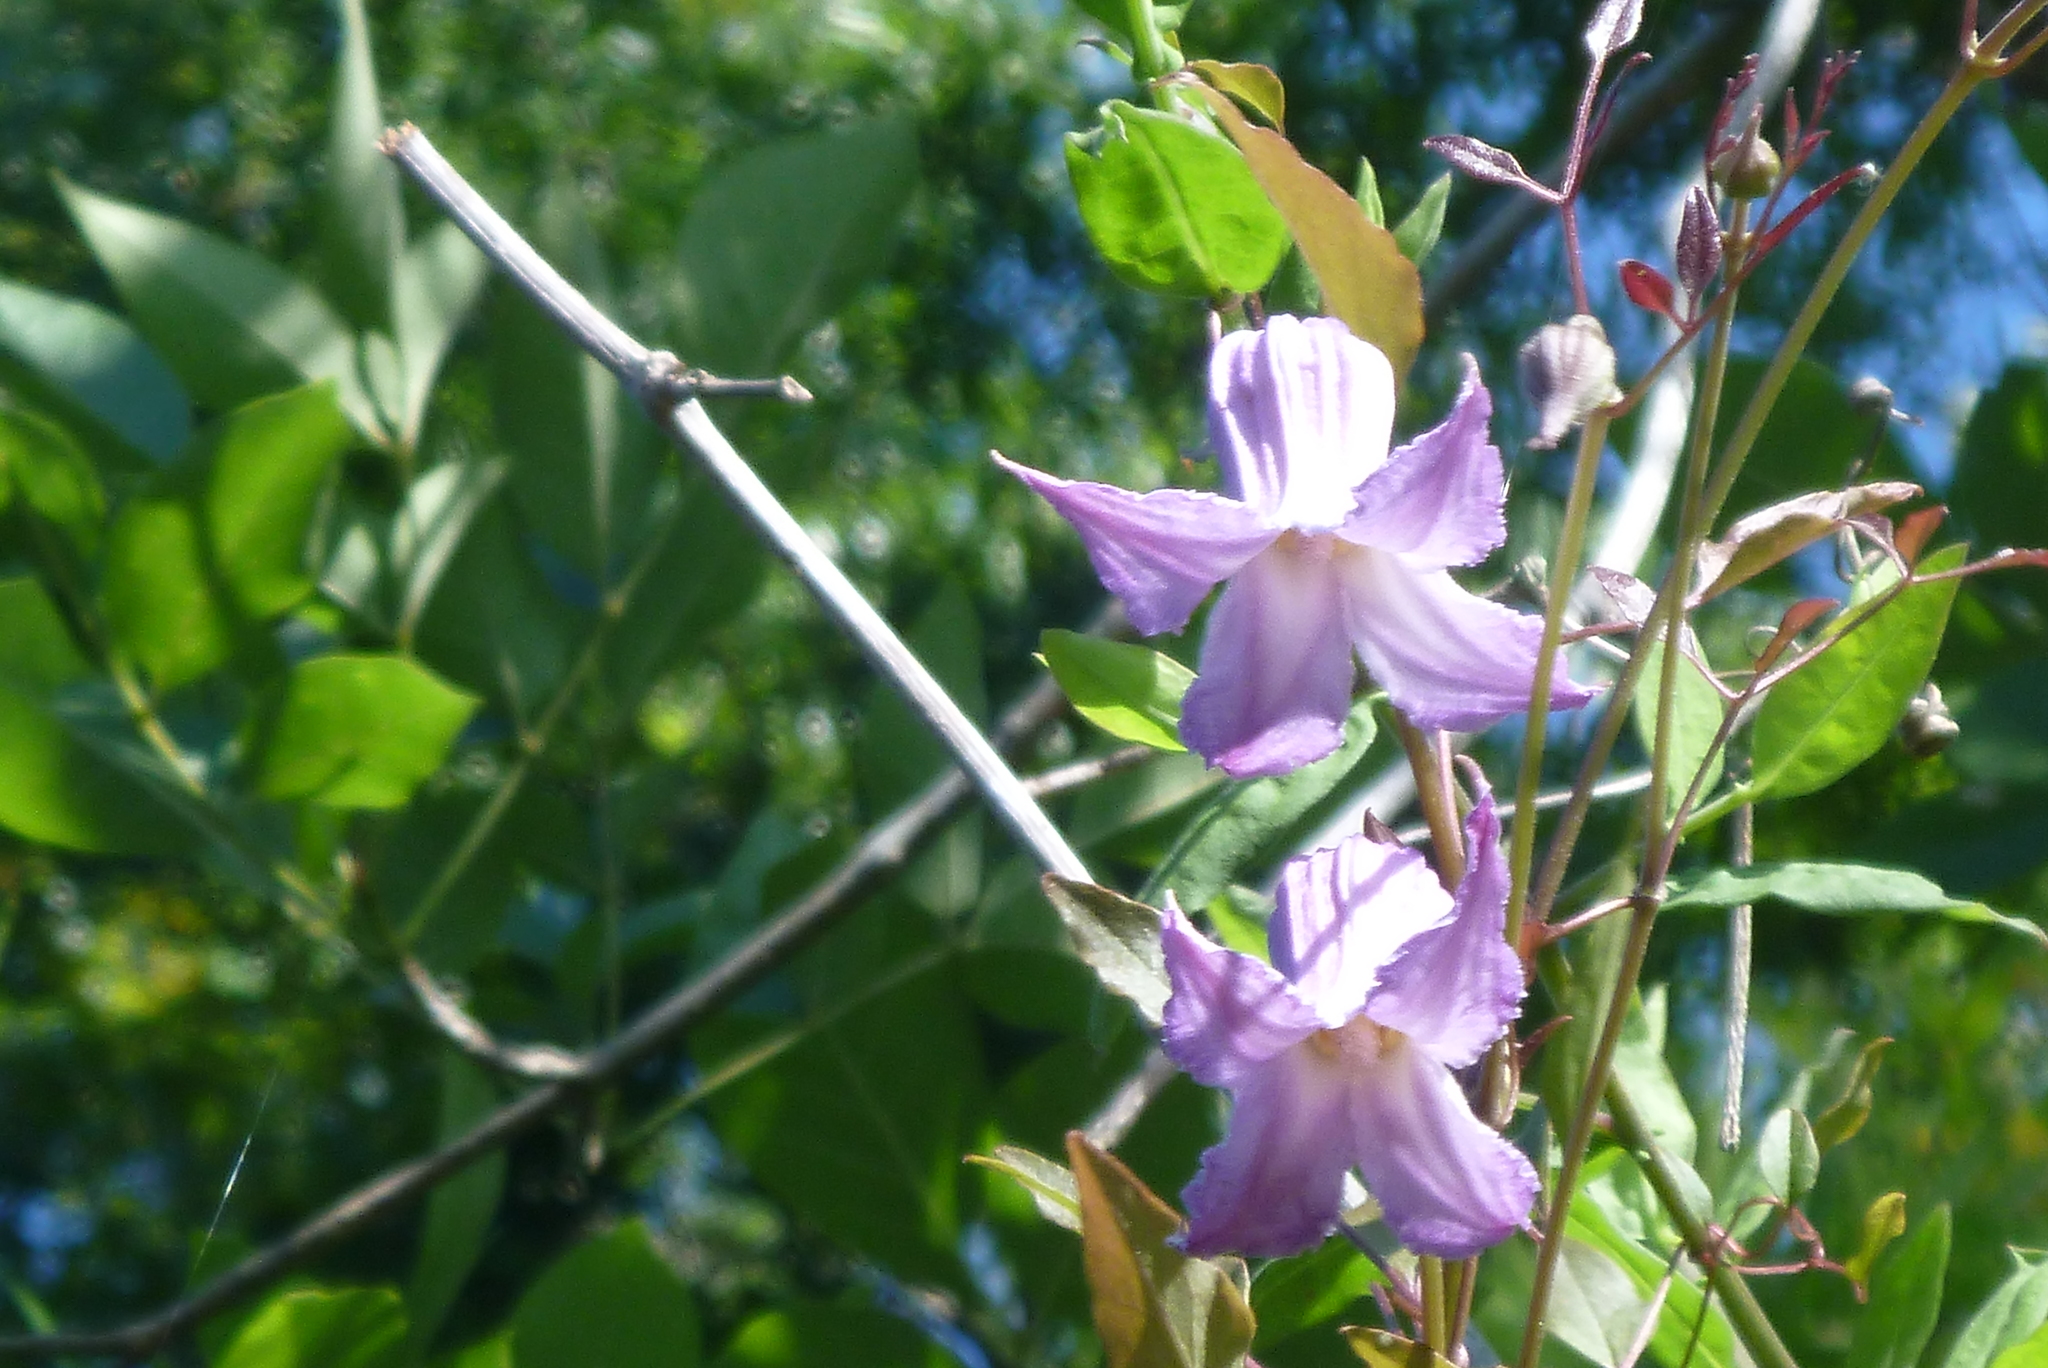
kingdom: Plantae
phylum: Tracheophyta
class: Magnoliopsida
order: Ranunculales
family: Ranunculaceae
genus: Clematis
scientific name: Clematis crispa
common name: Curly clematis
